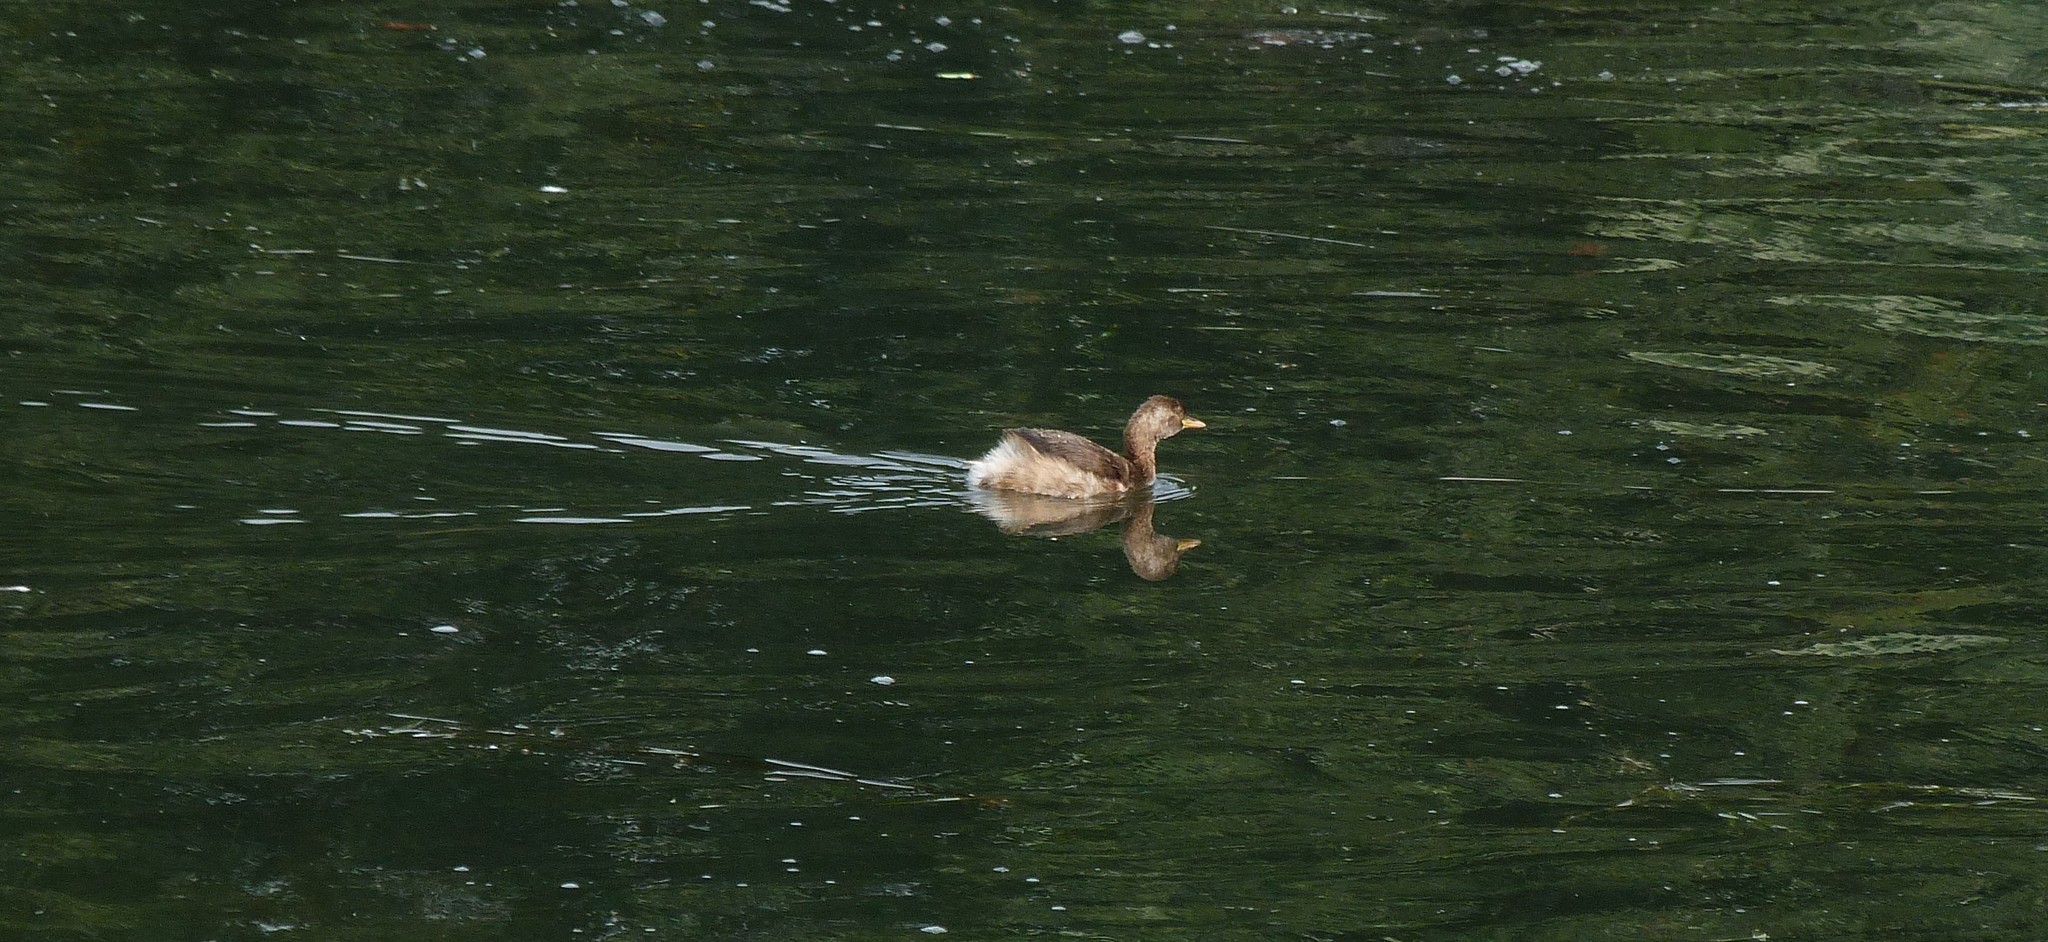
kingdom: Animalia
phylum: Chordata
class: Aves
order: Podicipediformes
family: Podicipedidae
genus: Tachybaptus
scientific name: Tachybaptus ruficollis
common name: Little grebe
